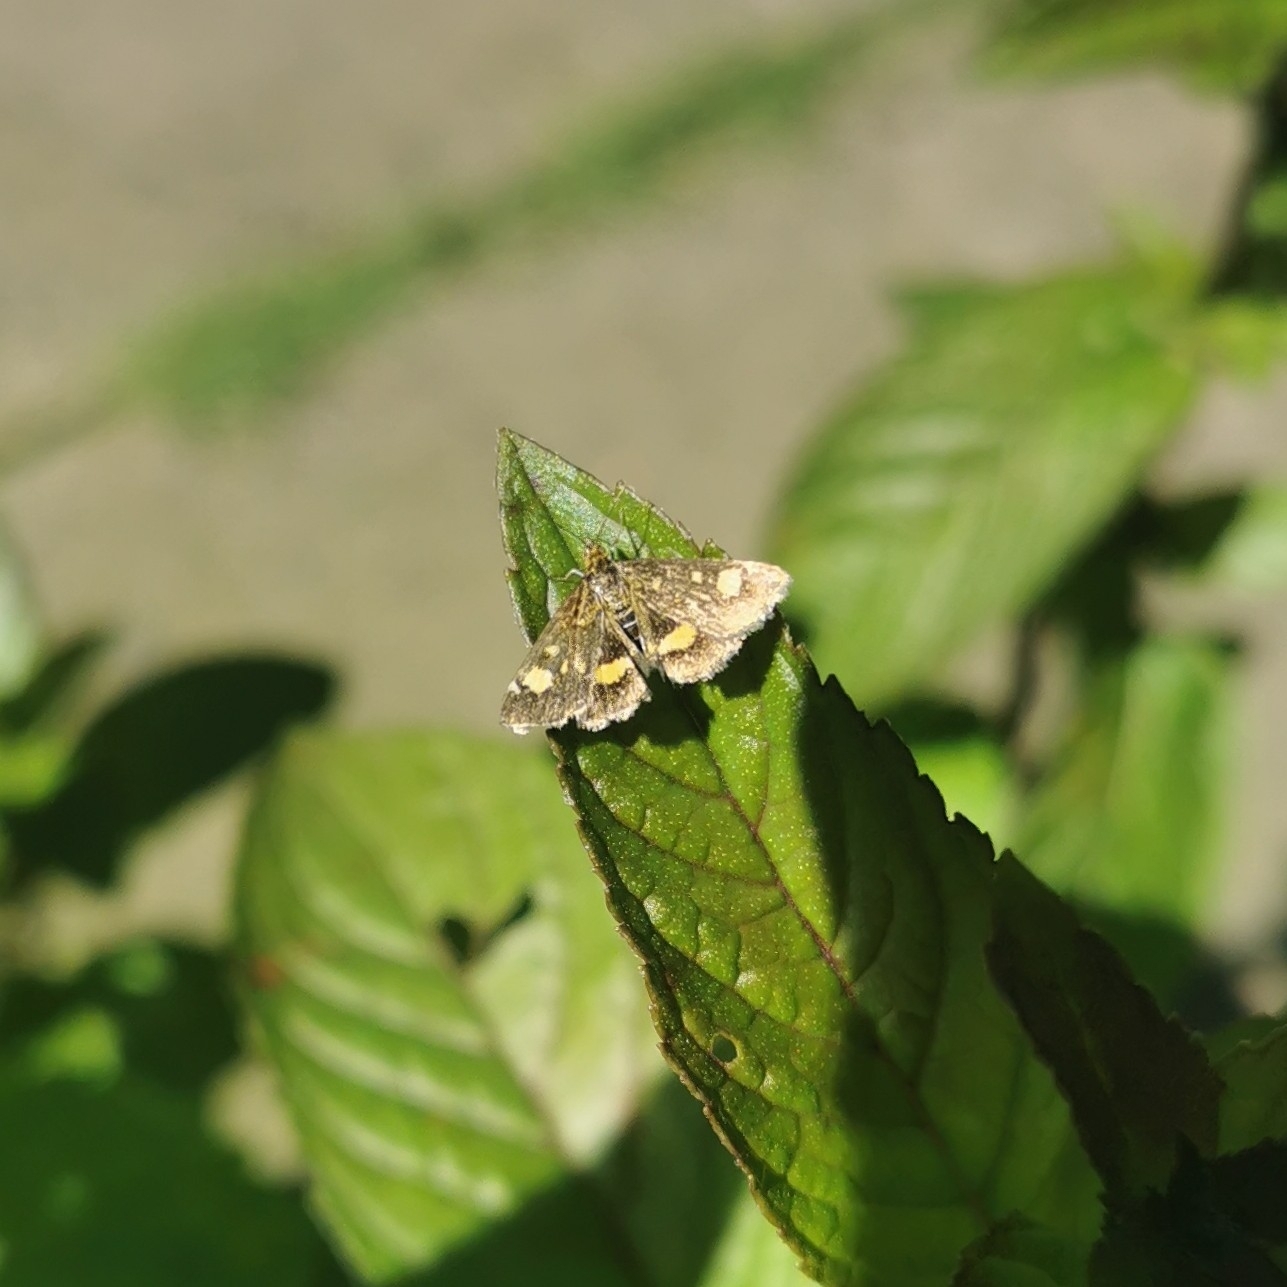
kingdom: Animalia
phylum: Arthropoda
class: Insecta
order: Lepidoptera
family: Crambidae
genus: Pyrausta
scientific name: Pyrausta aurata
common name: Small purple & gold
